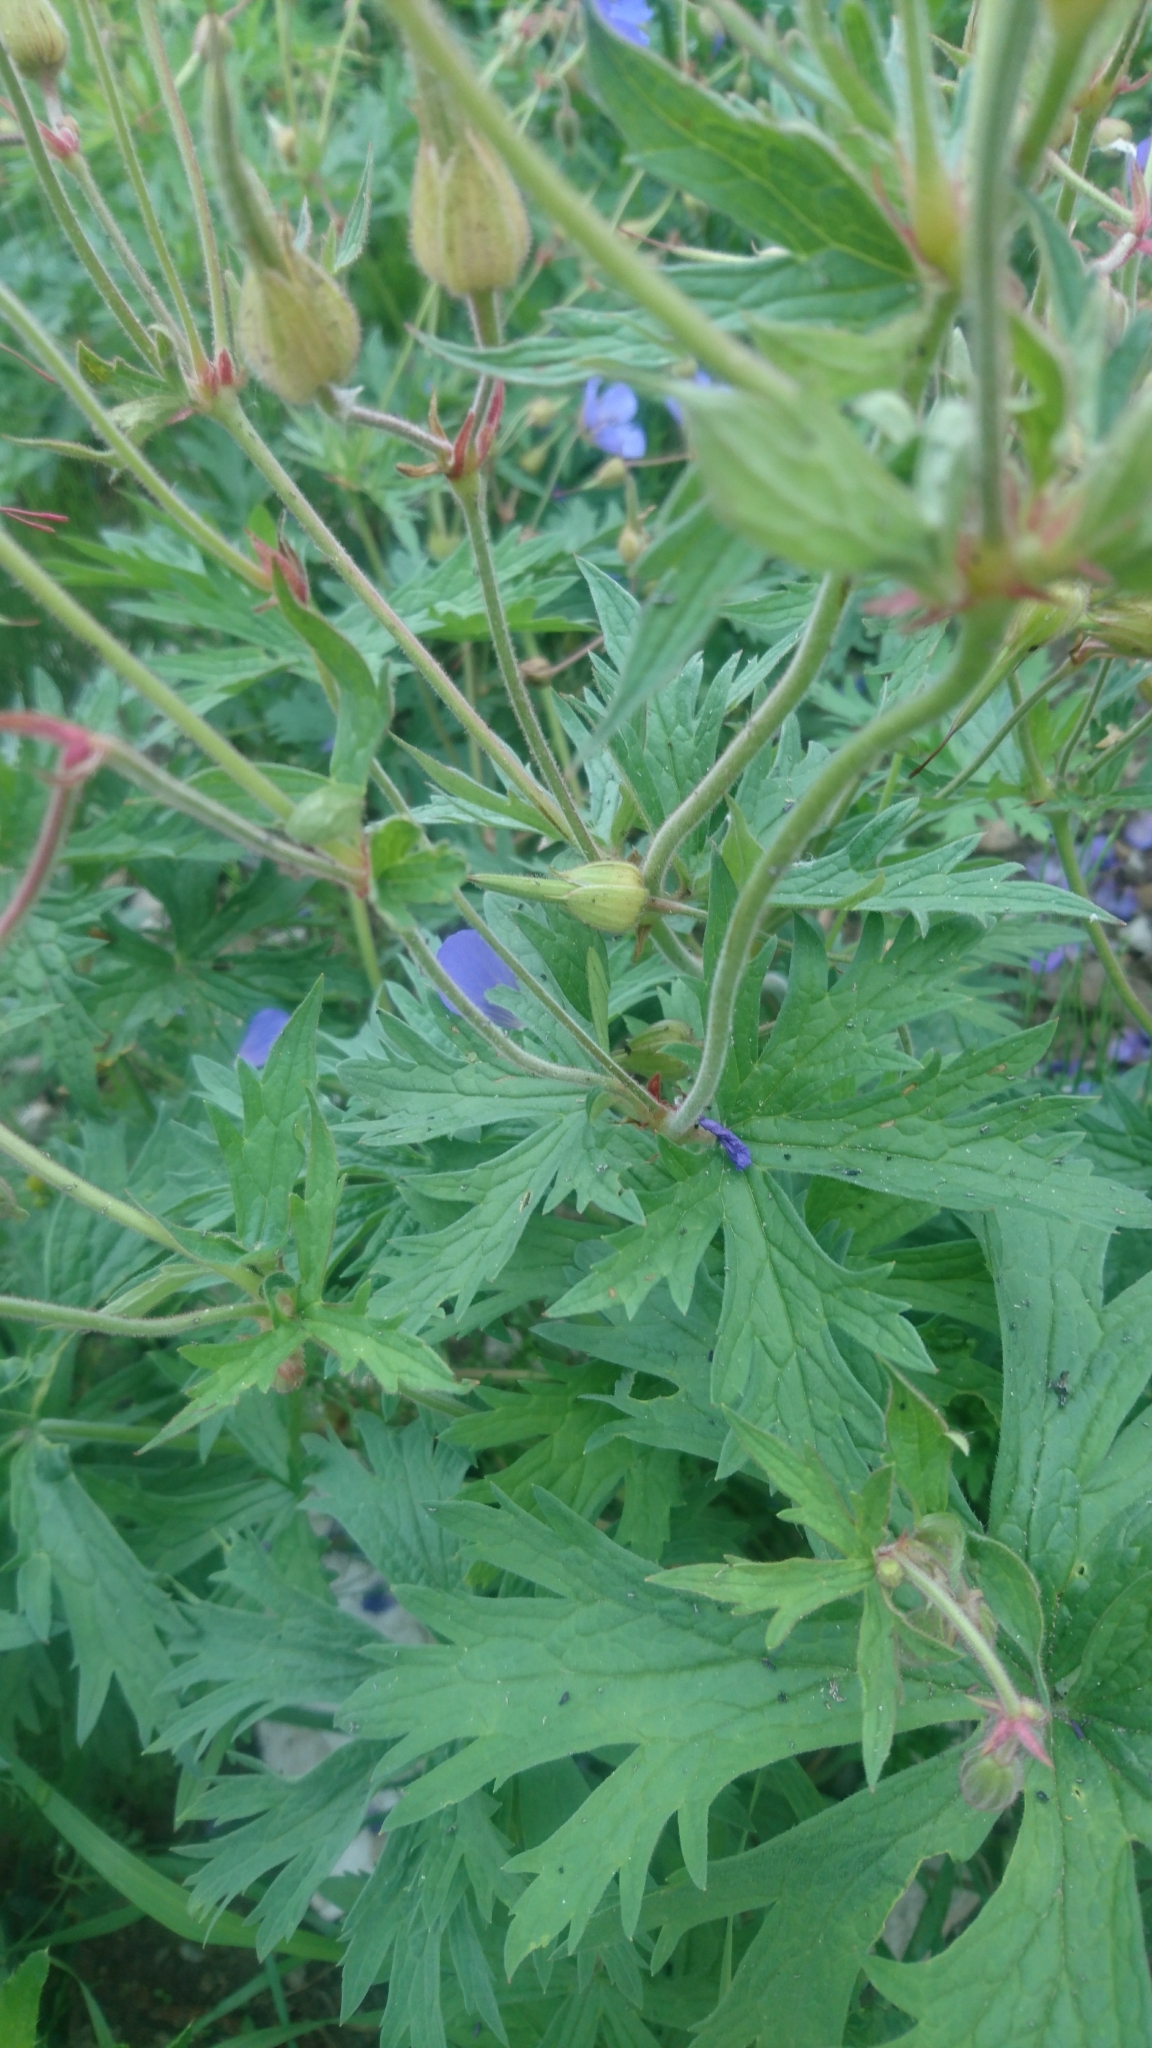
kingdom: Plantae
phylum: Tracheophyta
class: Magnoliopsida
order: Geraniales
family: Geraniaceae
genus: Geranium
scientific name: Geranium pratense
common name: Meadow crane's-bill
